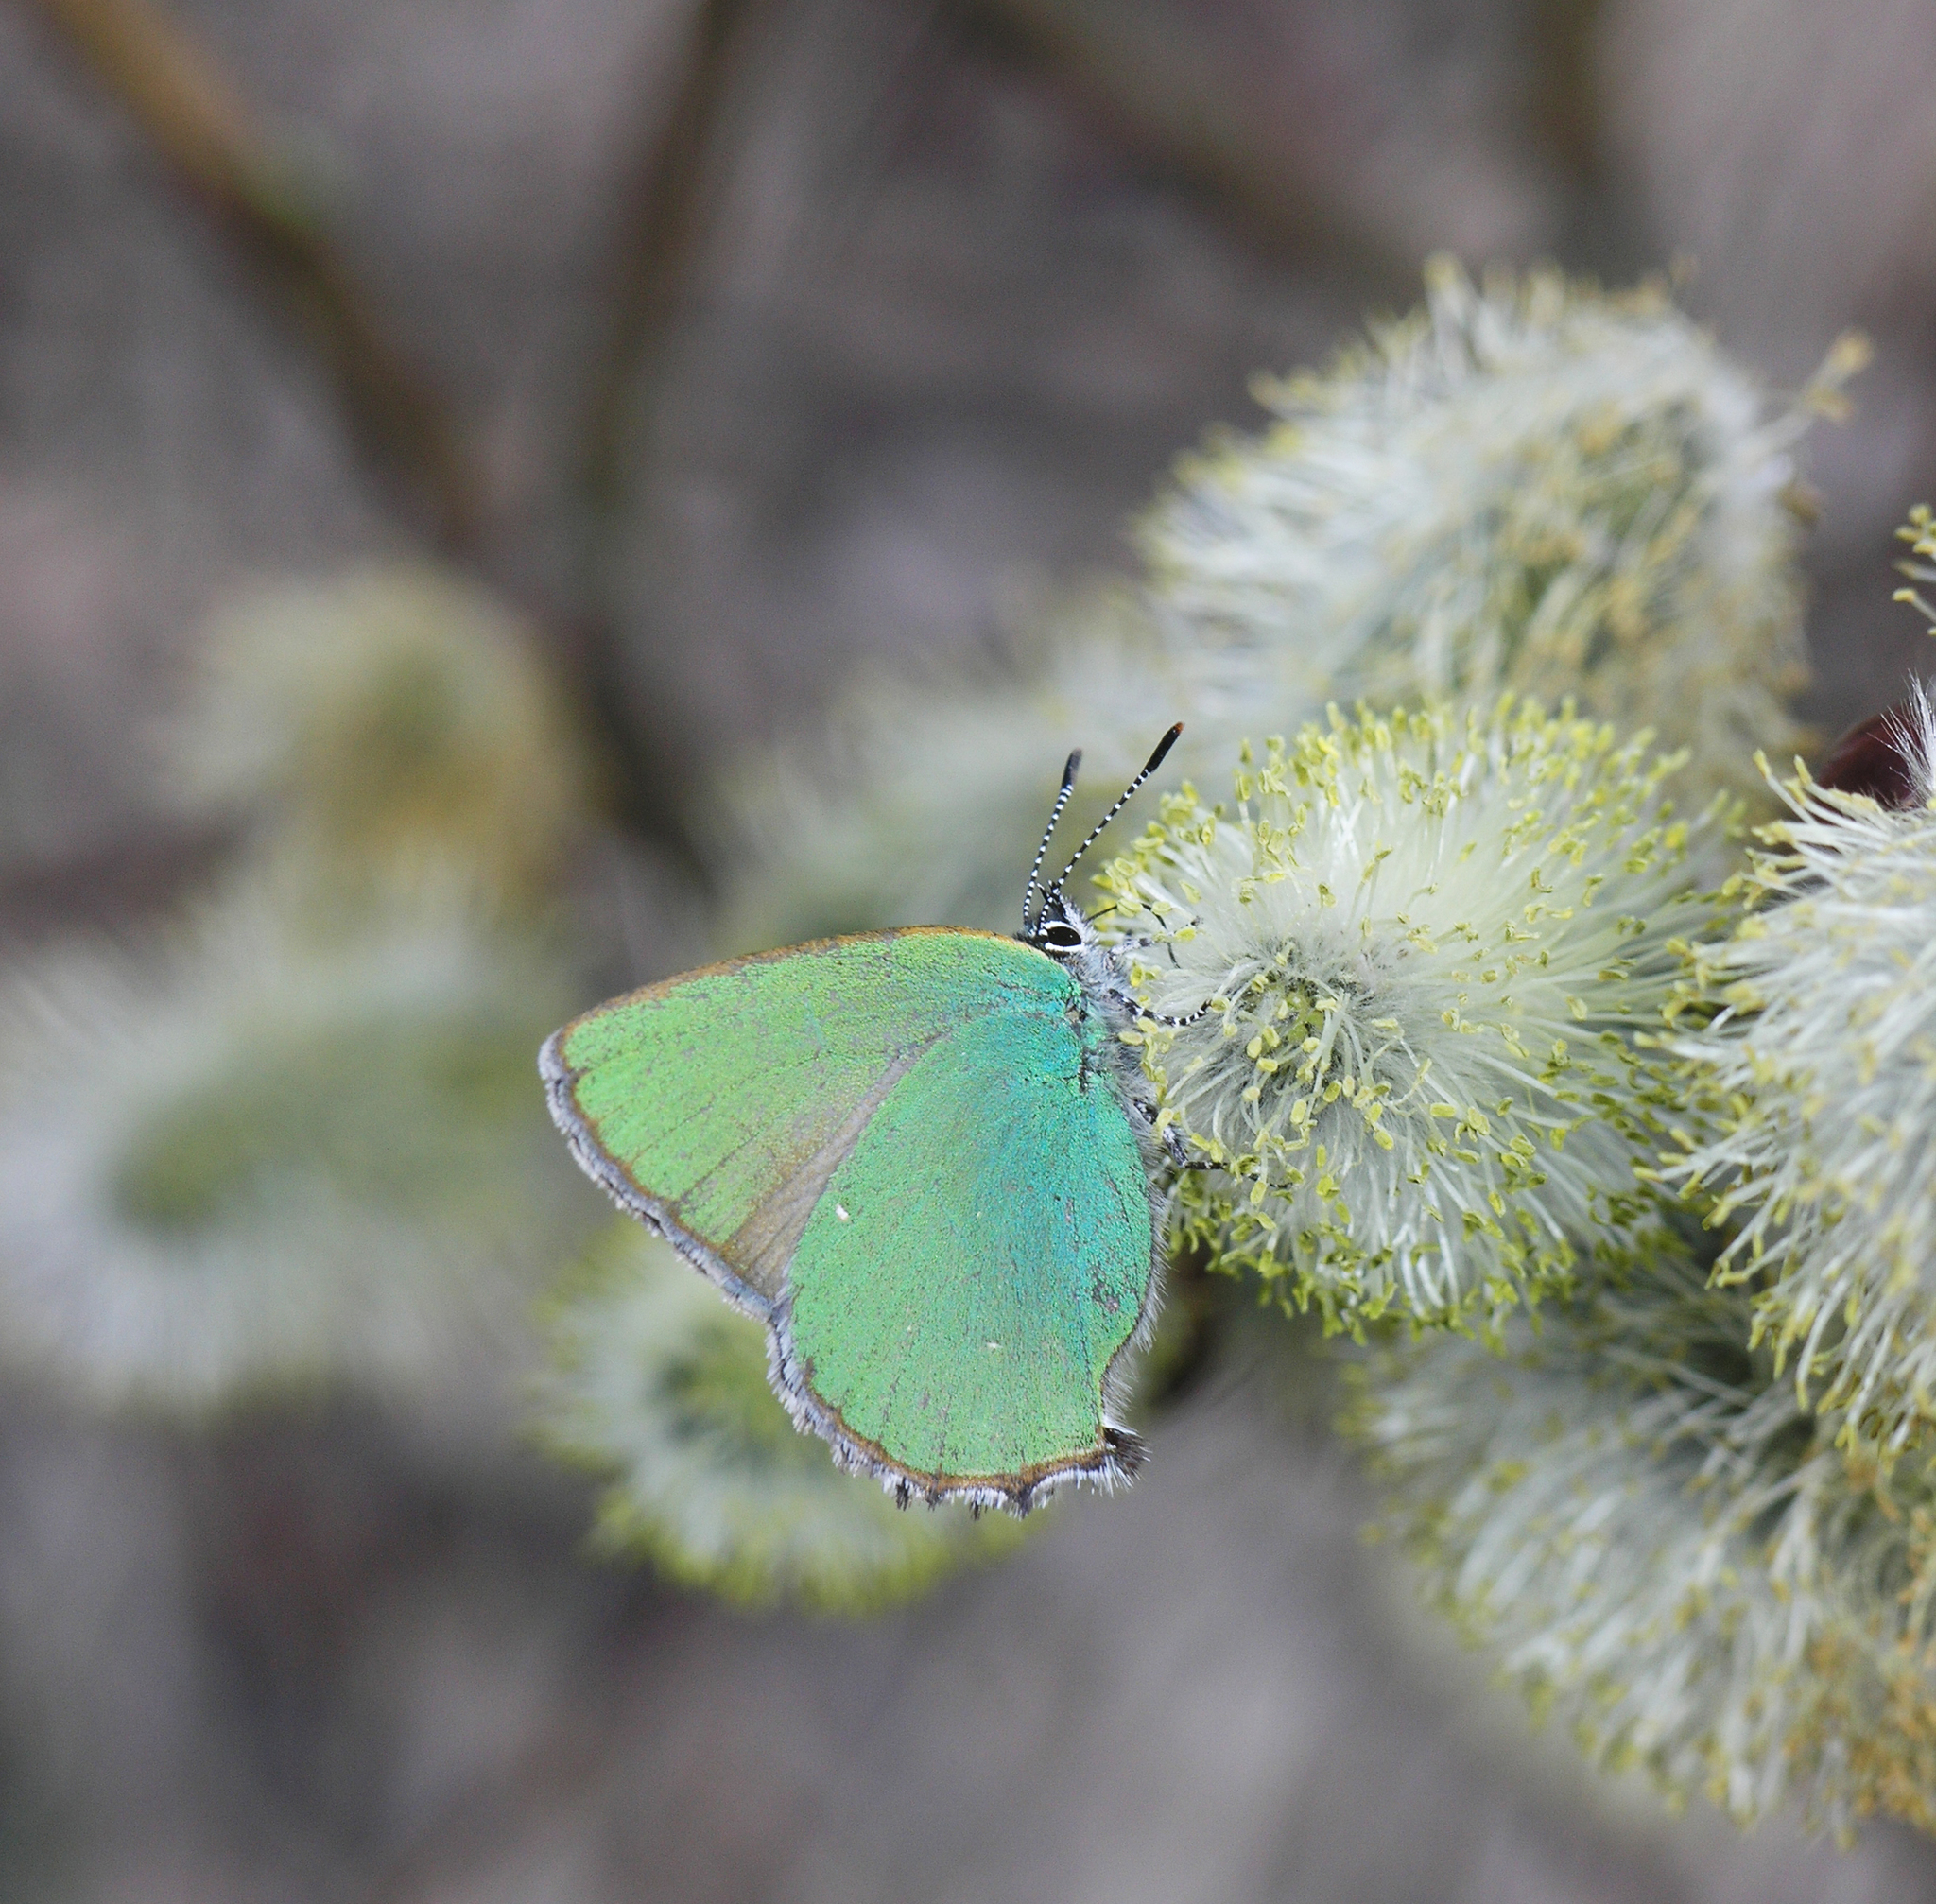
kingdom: Animalia
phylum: Arthropoda
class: Insecta
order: Lepidoptera
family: Lycaenidae
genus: Callophrys
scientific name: Callophrys rubi
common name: Green hairstreak
